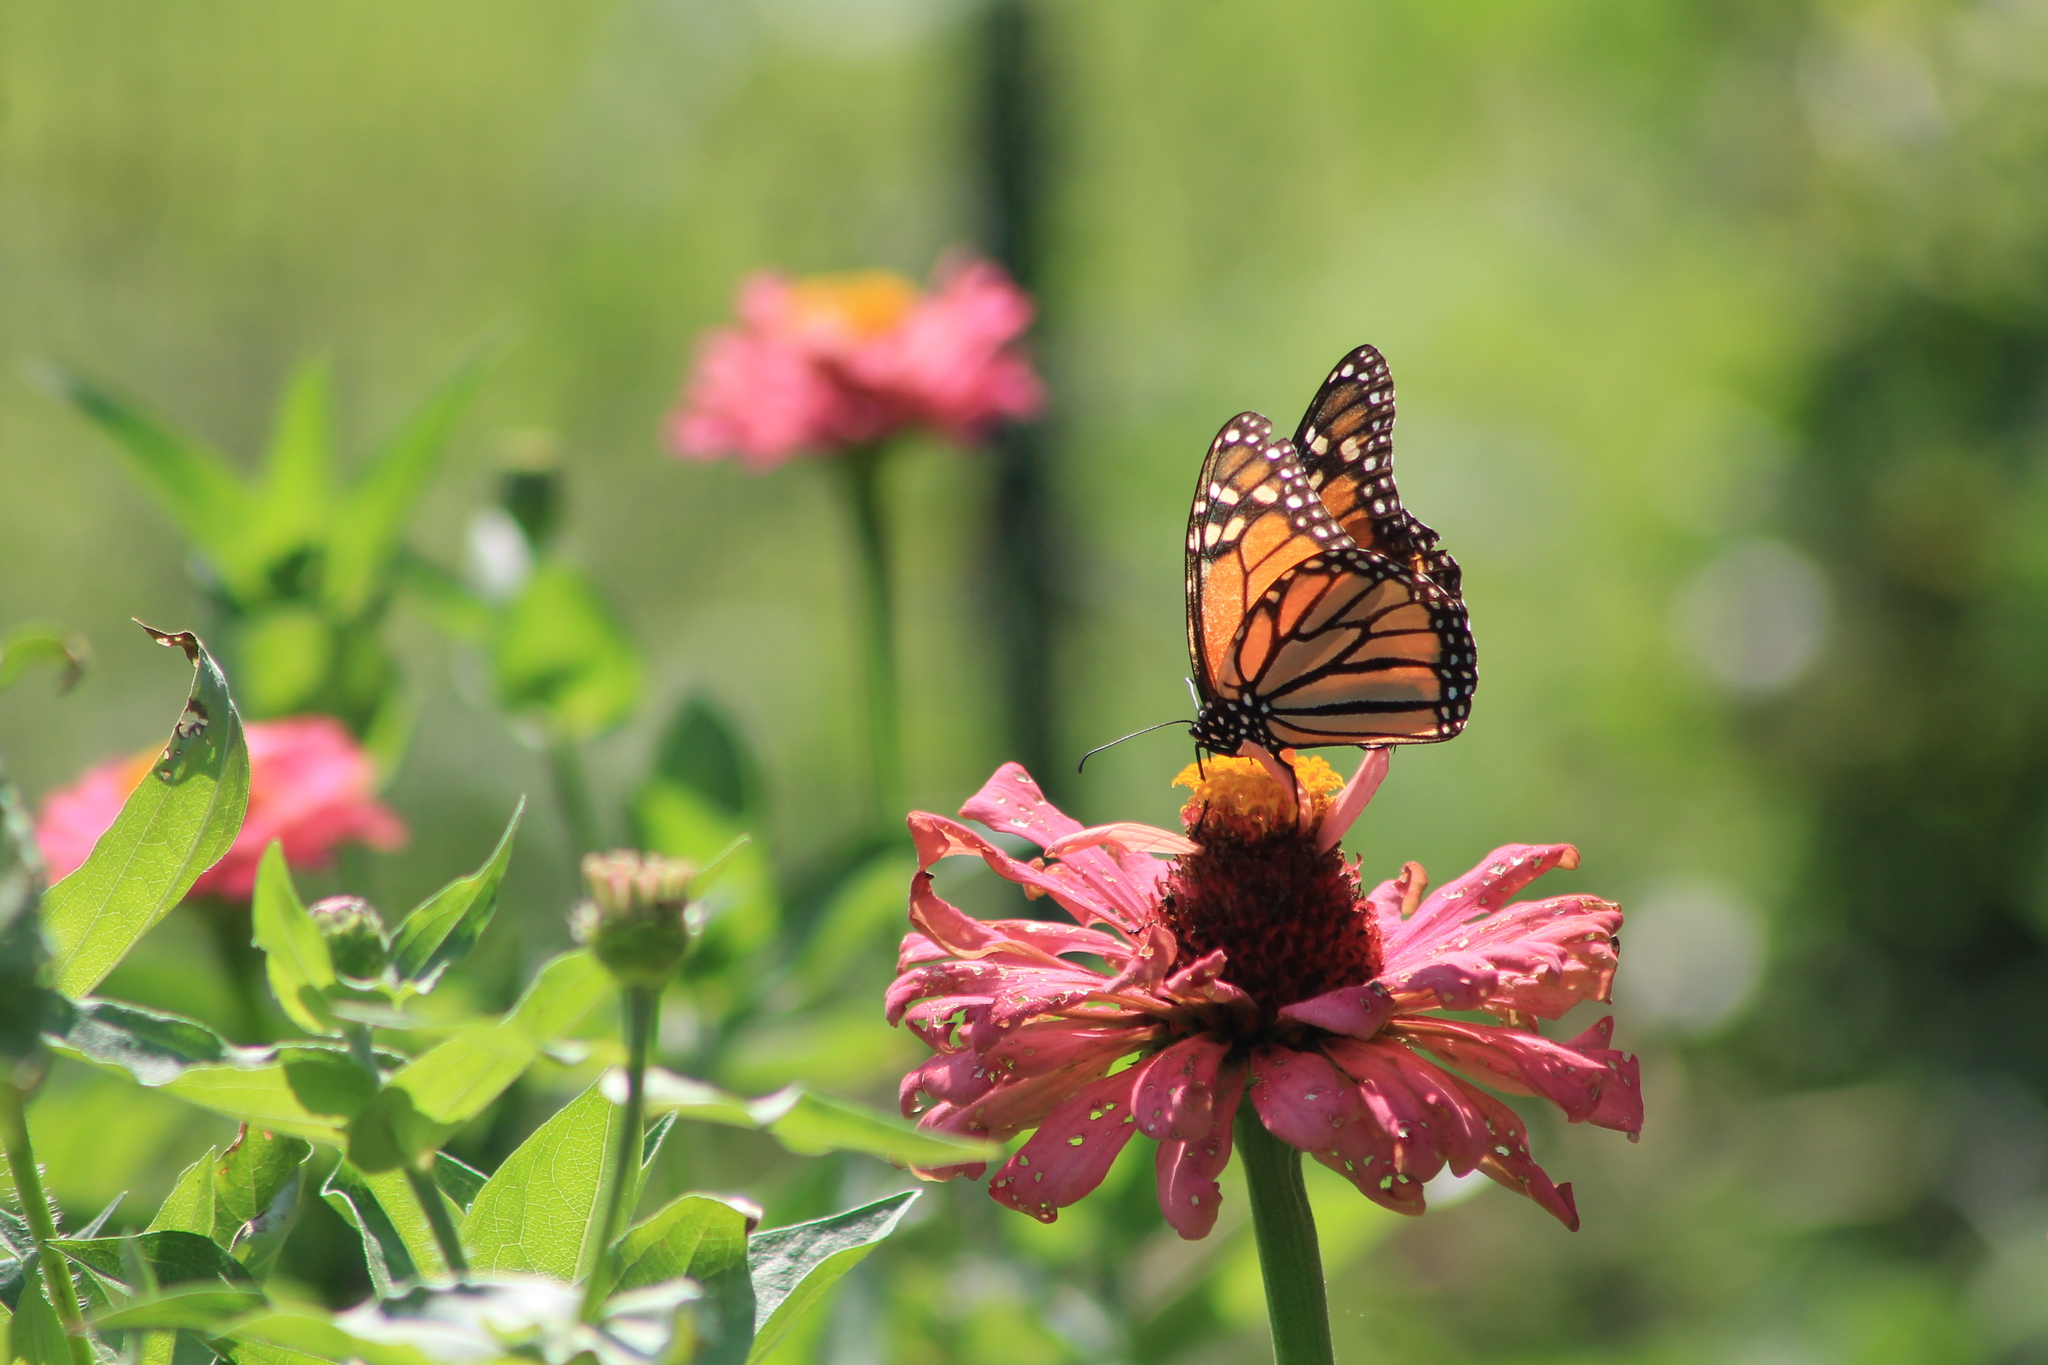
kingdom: Animalia
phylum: Arthropoda
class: Insecta
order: Lepidoptera
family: Nymphalidae
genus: Danaus
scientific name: Danaus plexippus
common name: Monarch
